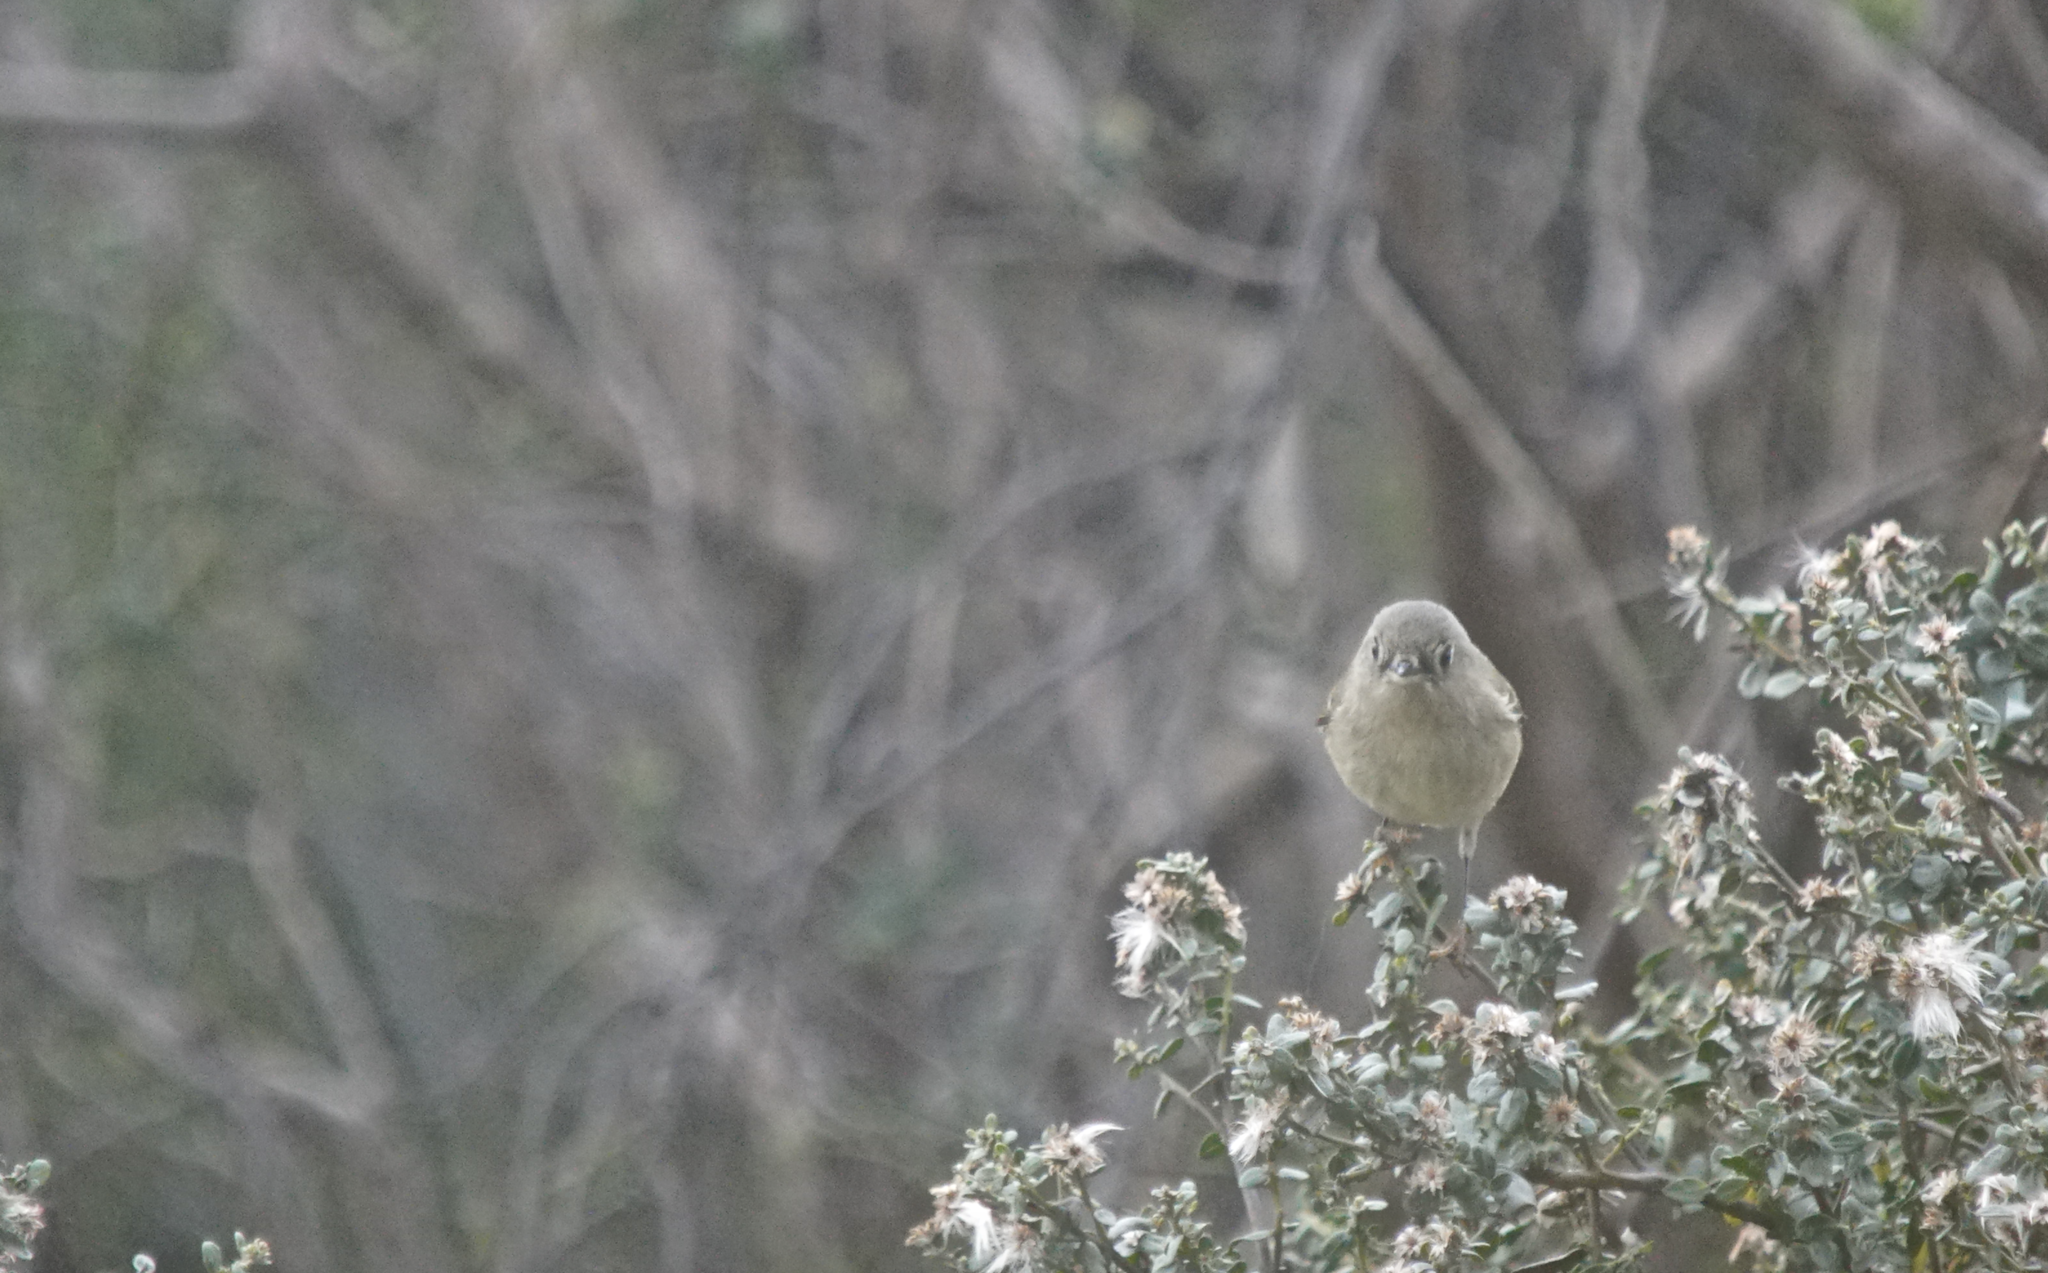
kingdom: Animalia
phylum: Chordata
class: Aves
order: Passeriformes
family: Regulidae
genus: Regulus
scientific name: Regulus calendula
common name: Ruby-crowned kinglet
